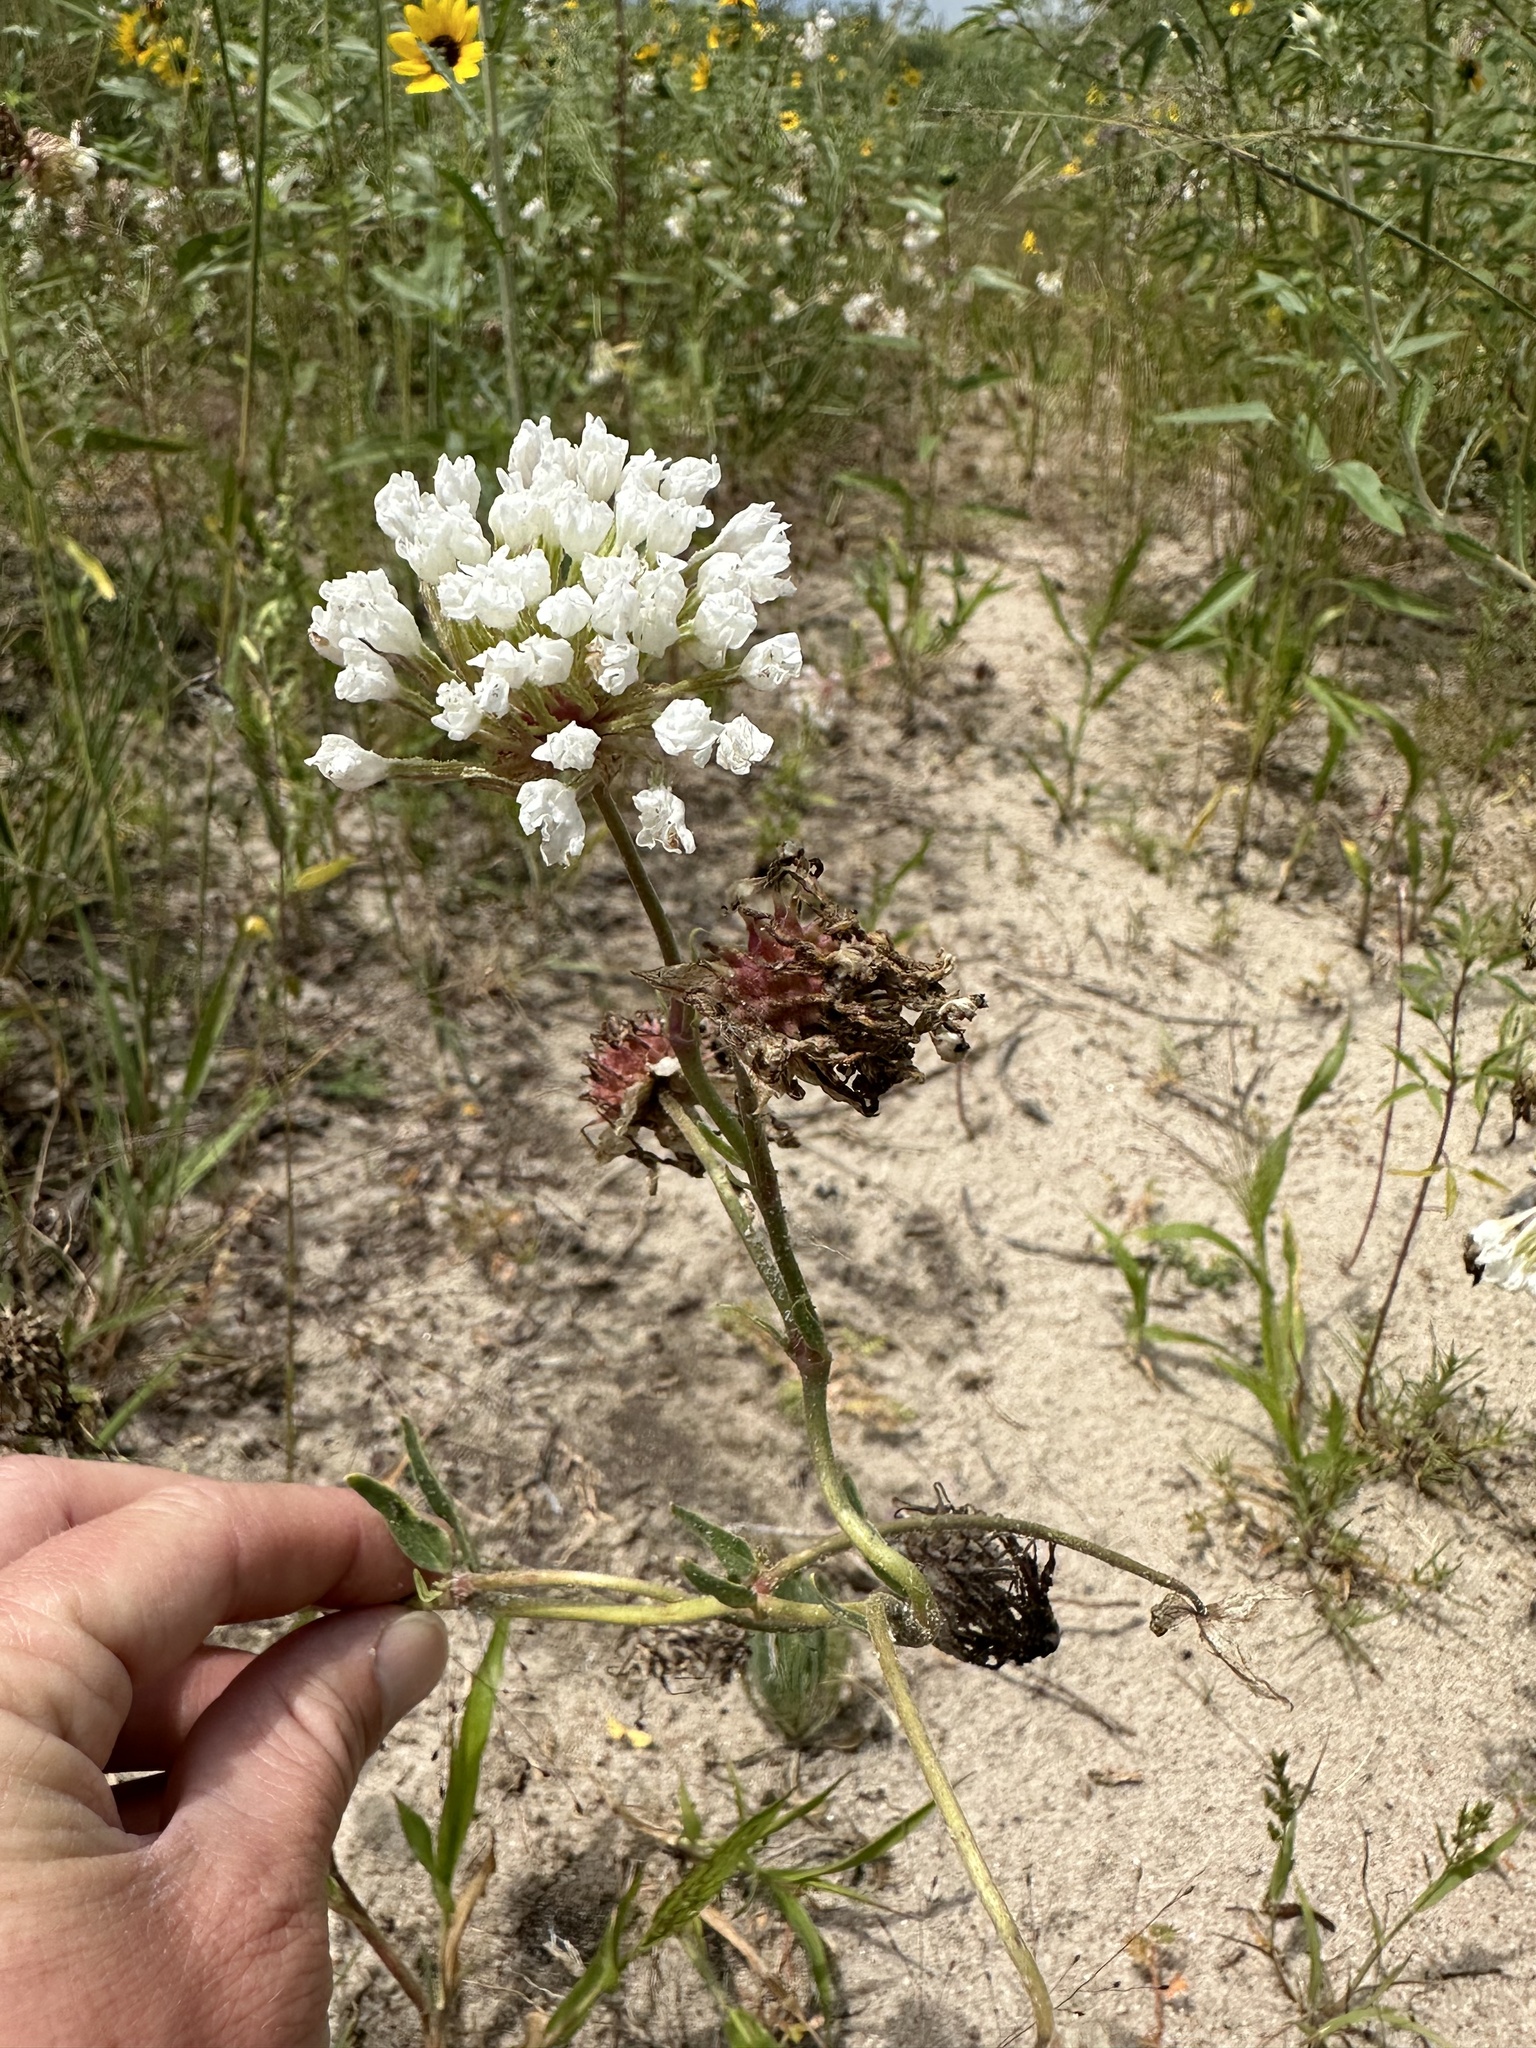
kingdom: Plantae
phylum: Tracheophyta
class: Magnoliopsida
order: Caryophyllales
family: Nyctaginaceae
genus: Abronia
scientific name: Abronia fragrans
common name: Fragrant sand-verbena
